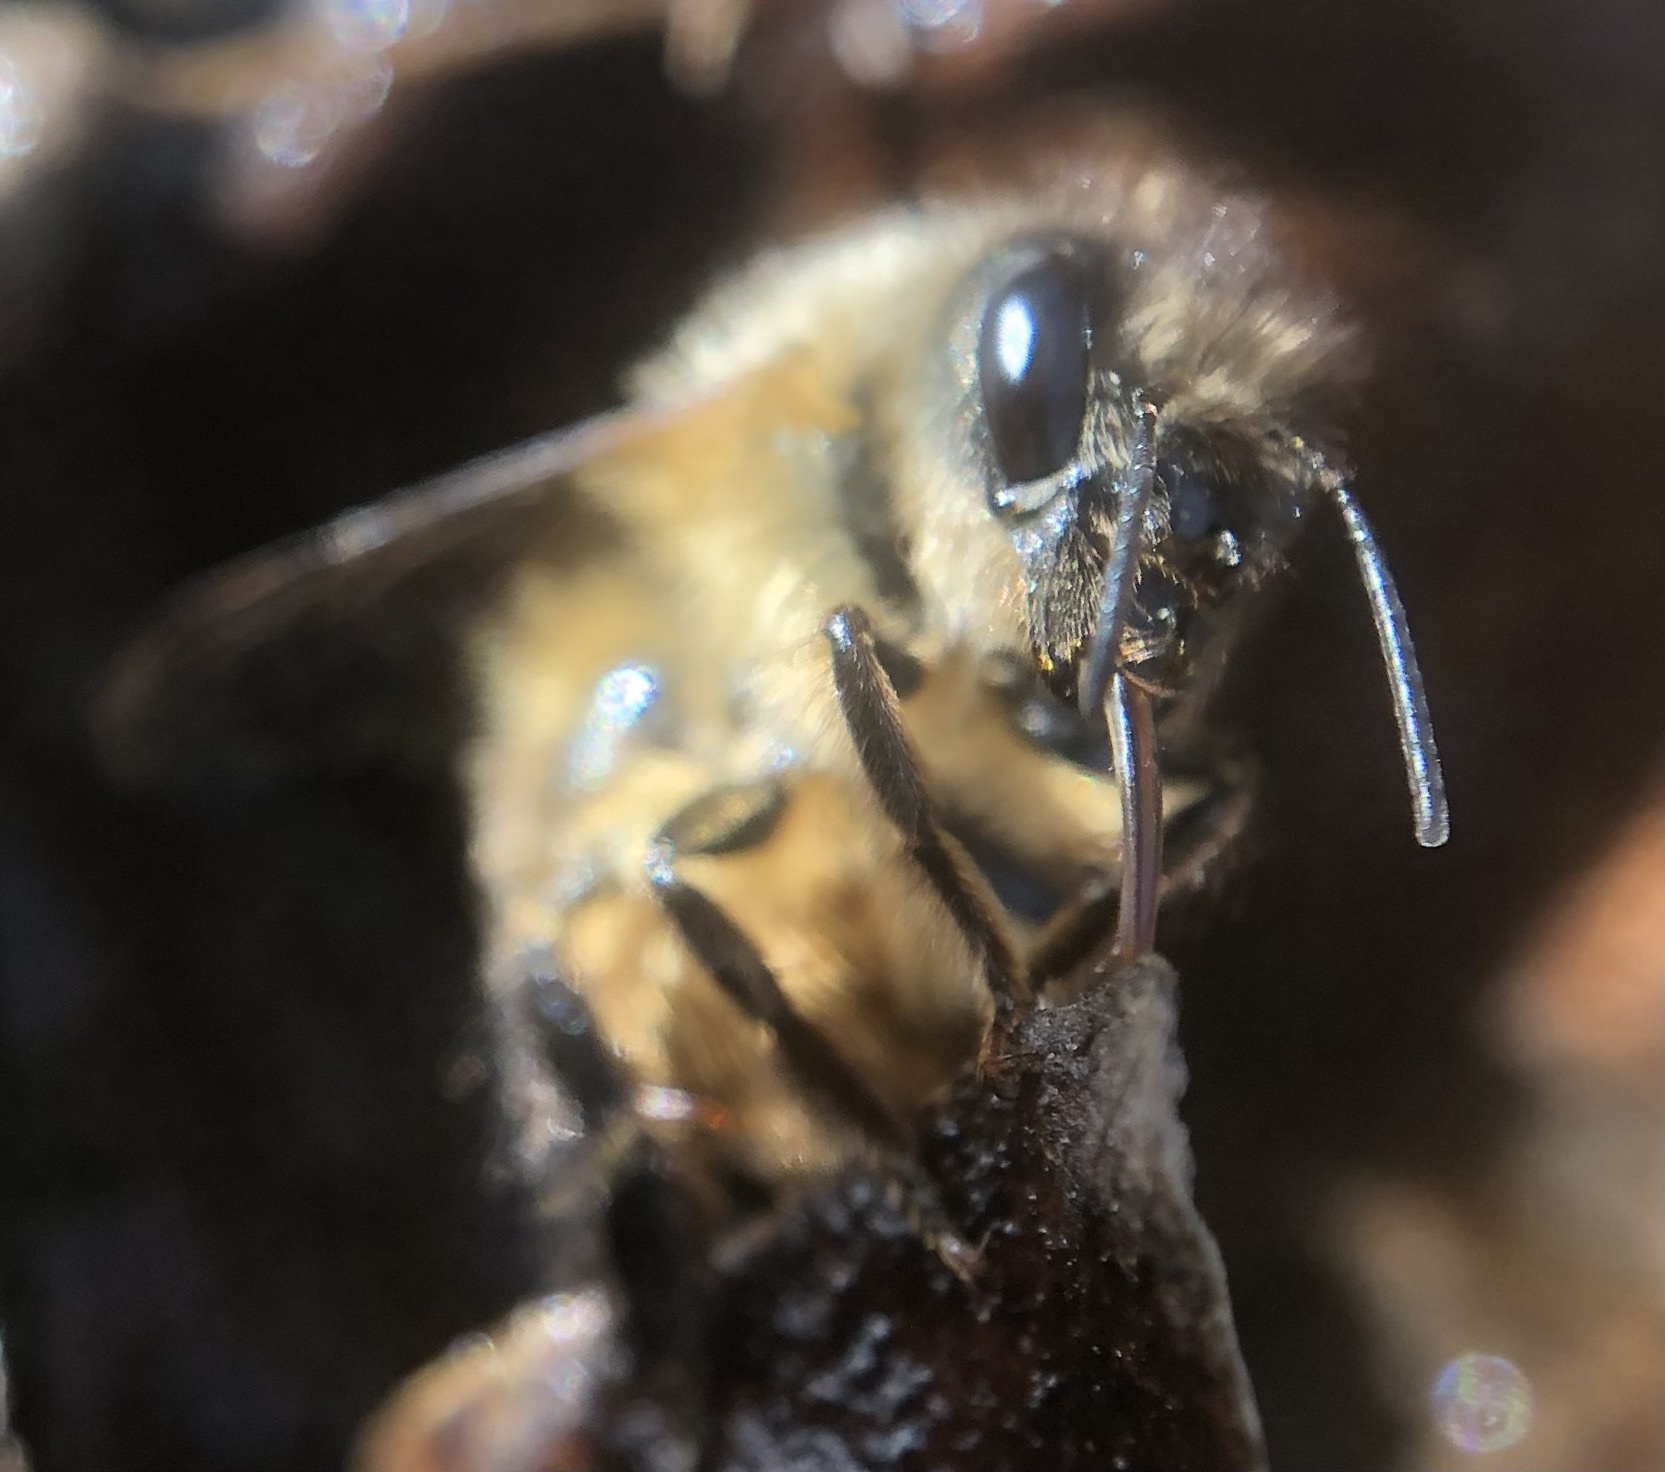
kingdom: Animalia
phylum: Arthropoda
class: Insecta
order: Hymenoptera
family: Megachilidae
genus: Osmia
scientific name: Osmia taurus
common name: Taurus mason bee
